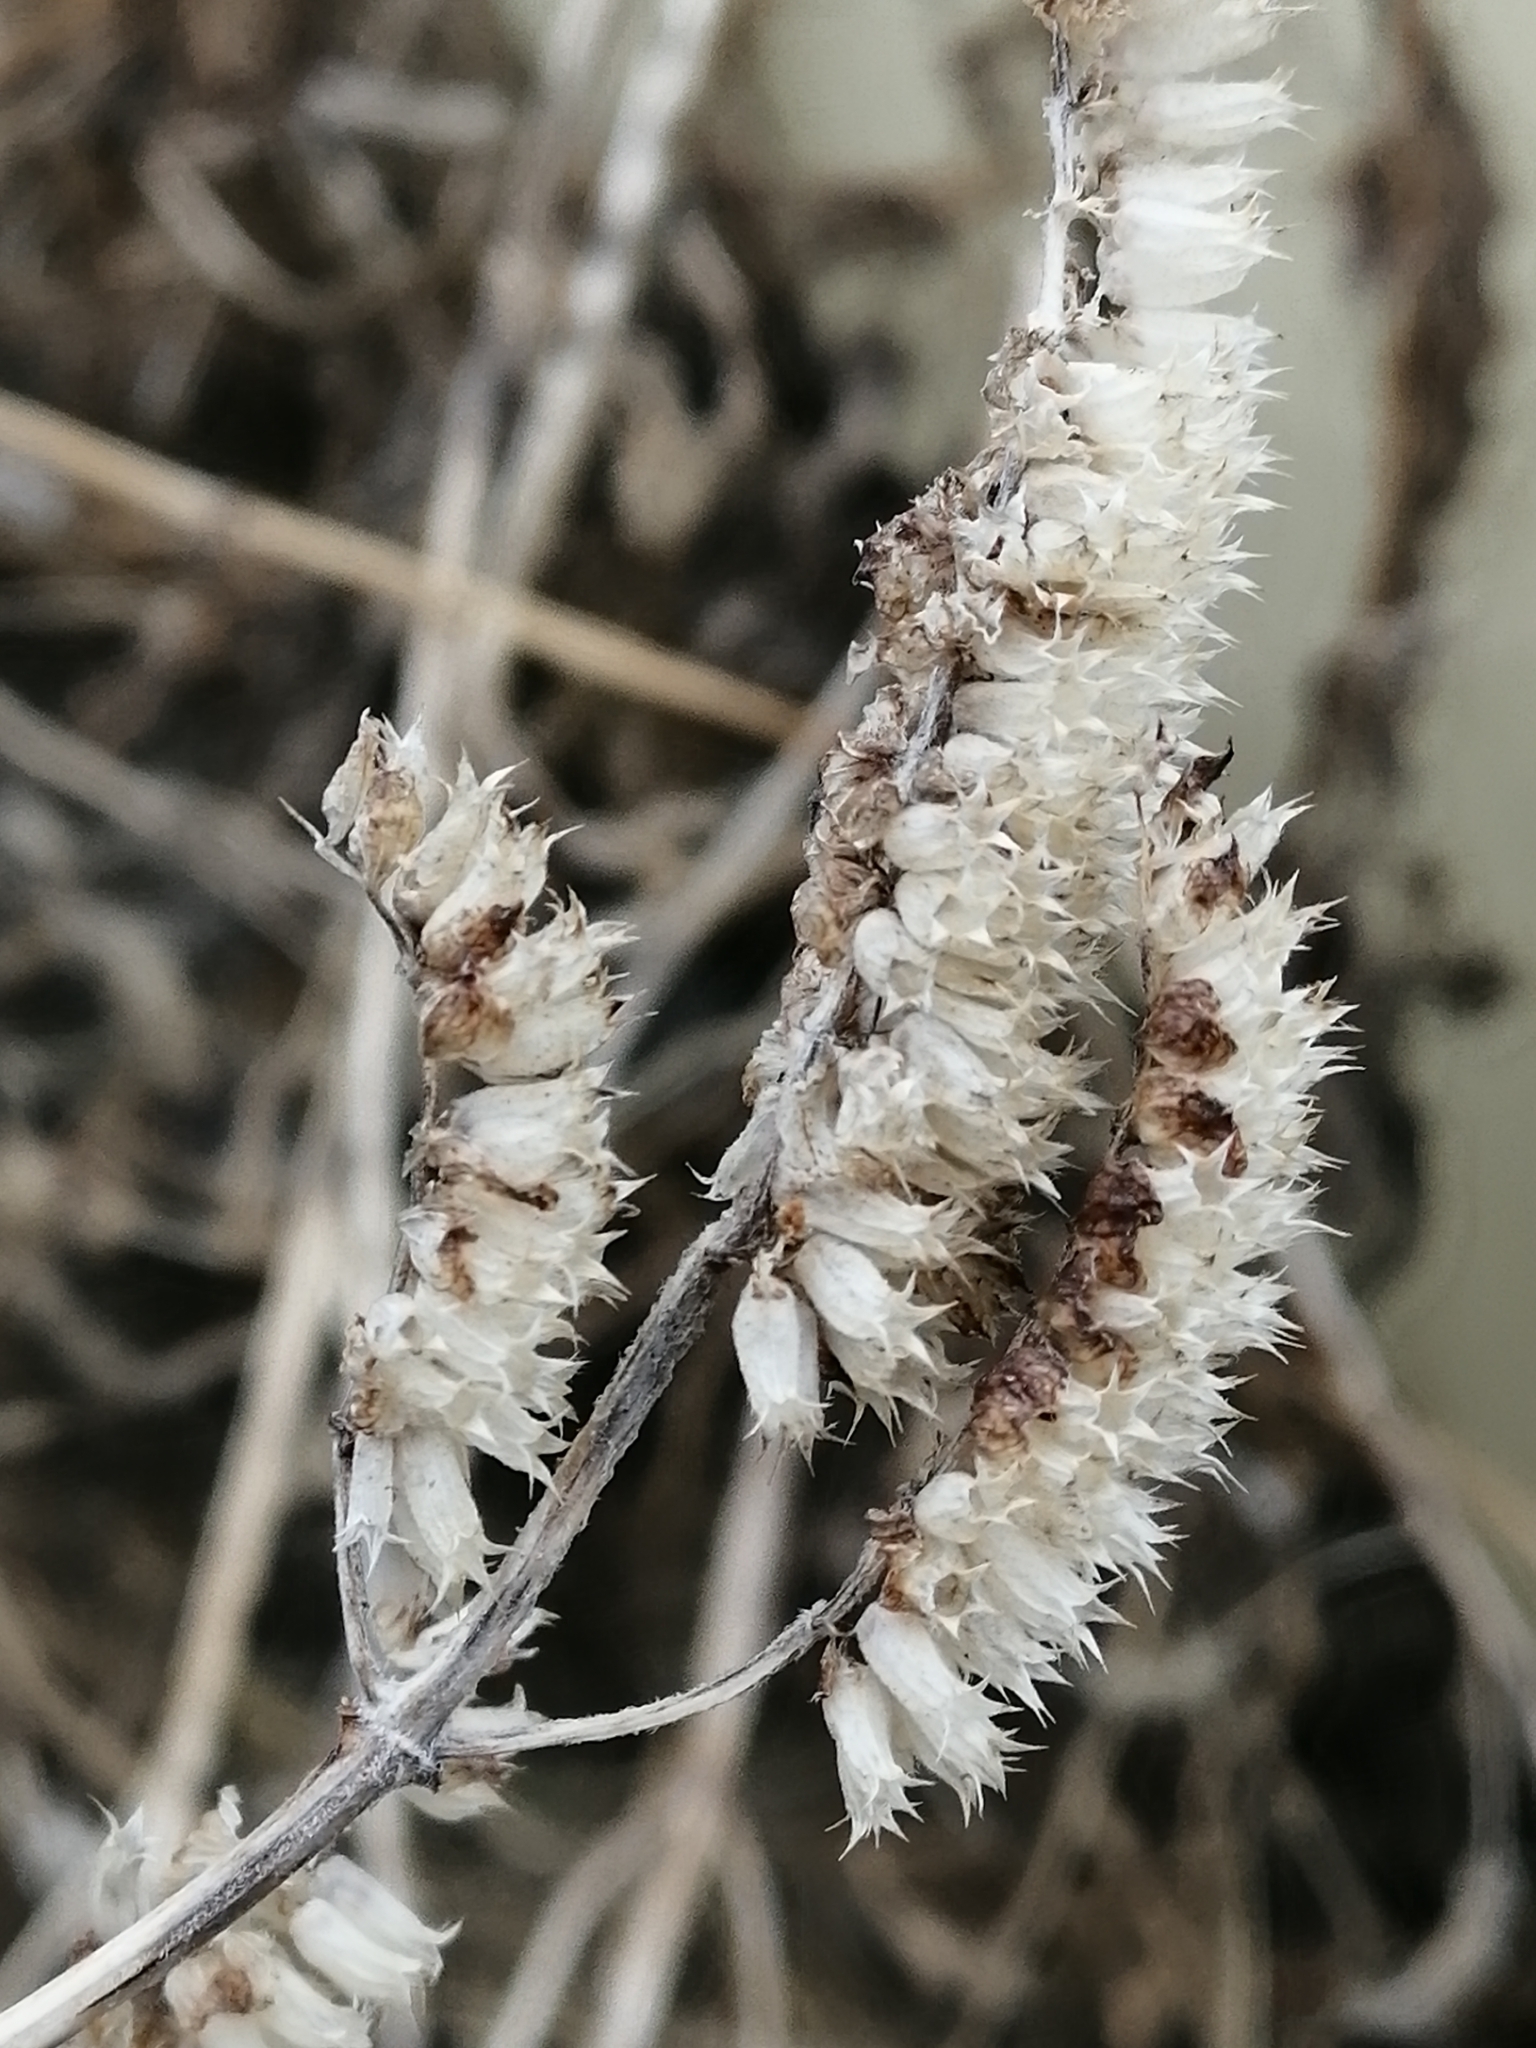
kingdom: Plantae
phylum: Tracheophyta
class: Magnoliopsida
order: Lamiales
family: Lamiaceae
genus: Elsholtzia
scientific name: Elsholtzia ciliata
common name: Ciliate elsholtzia
